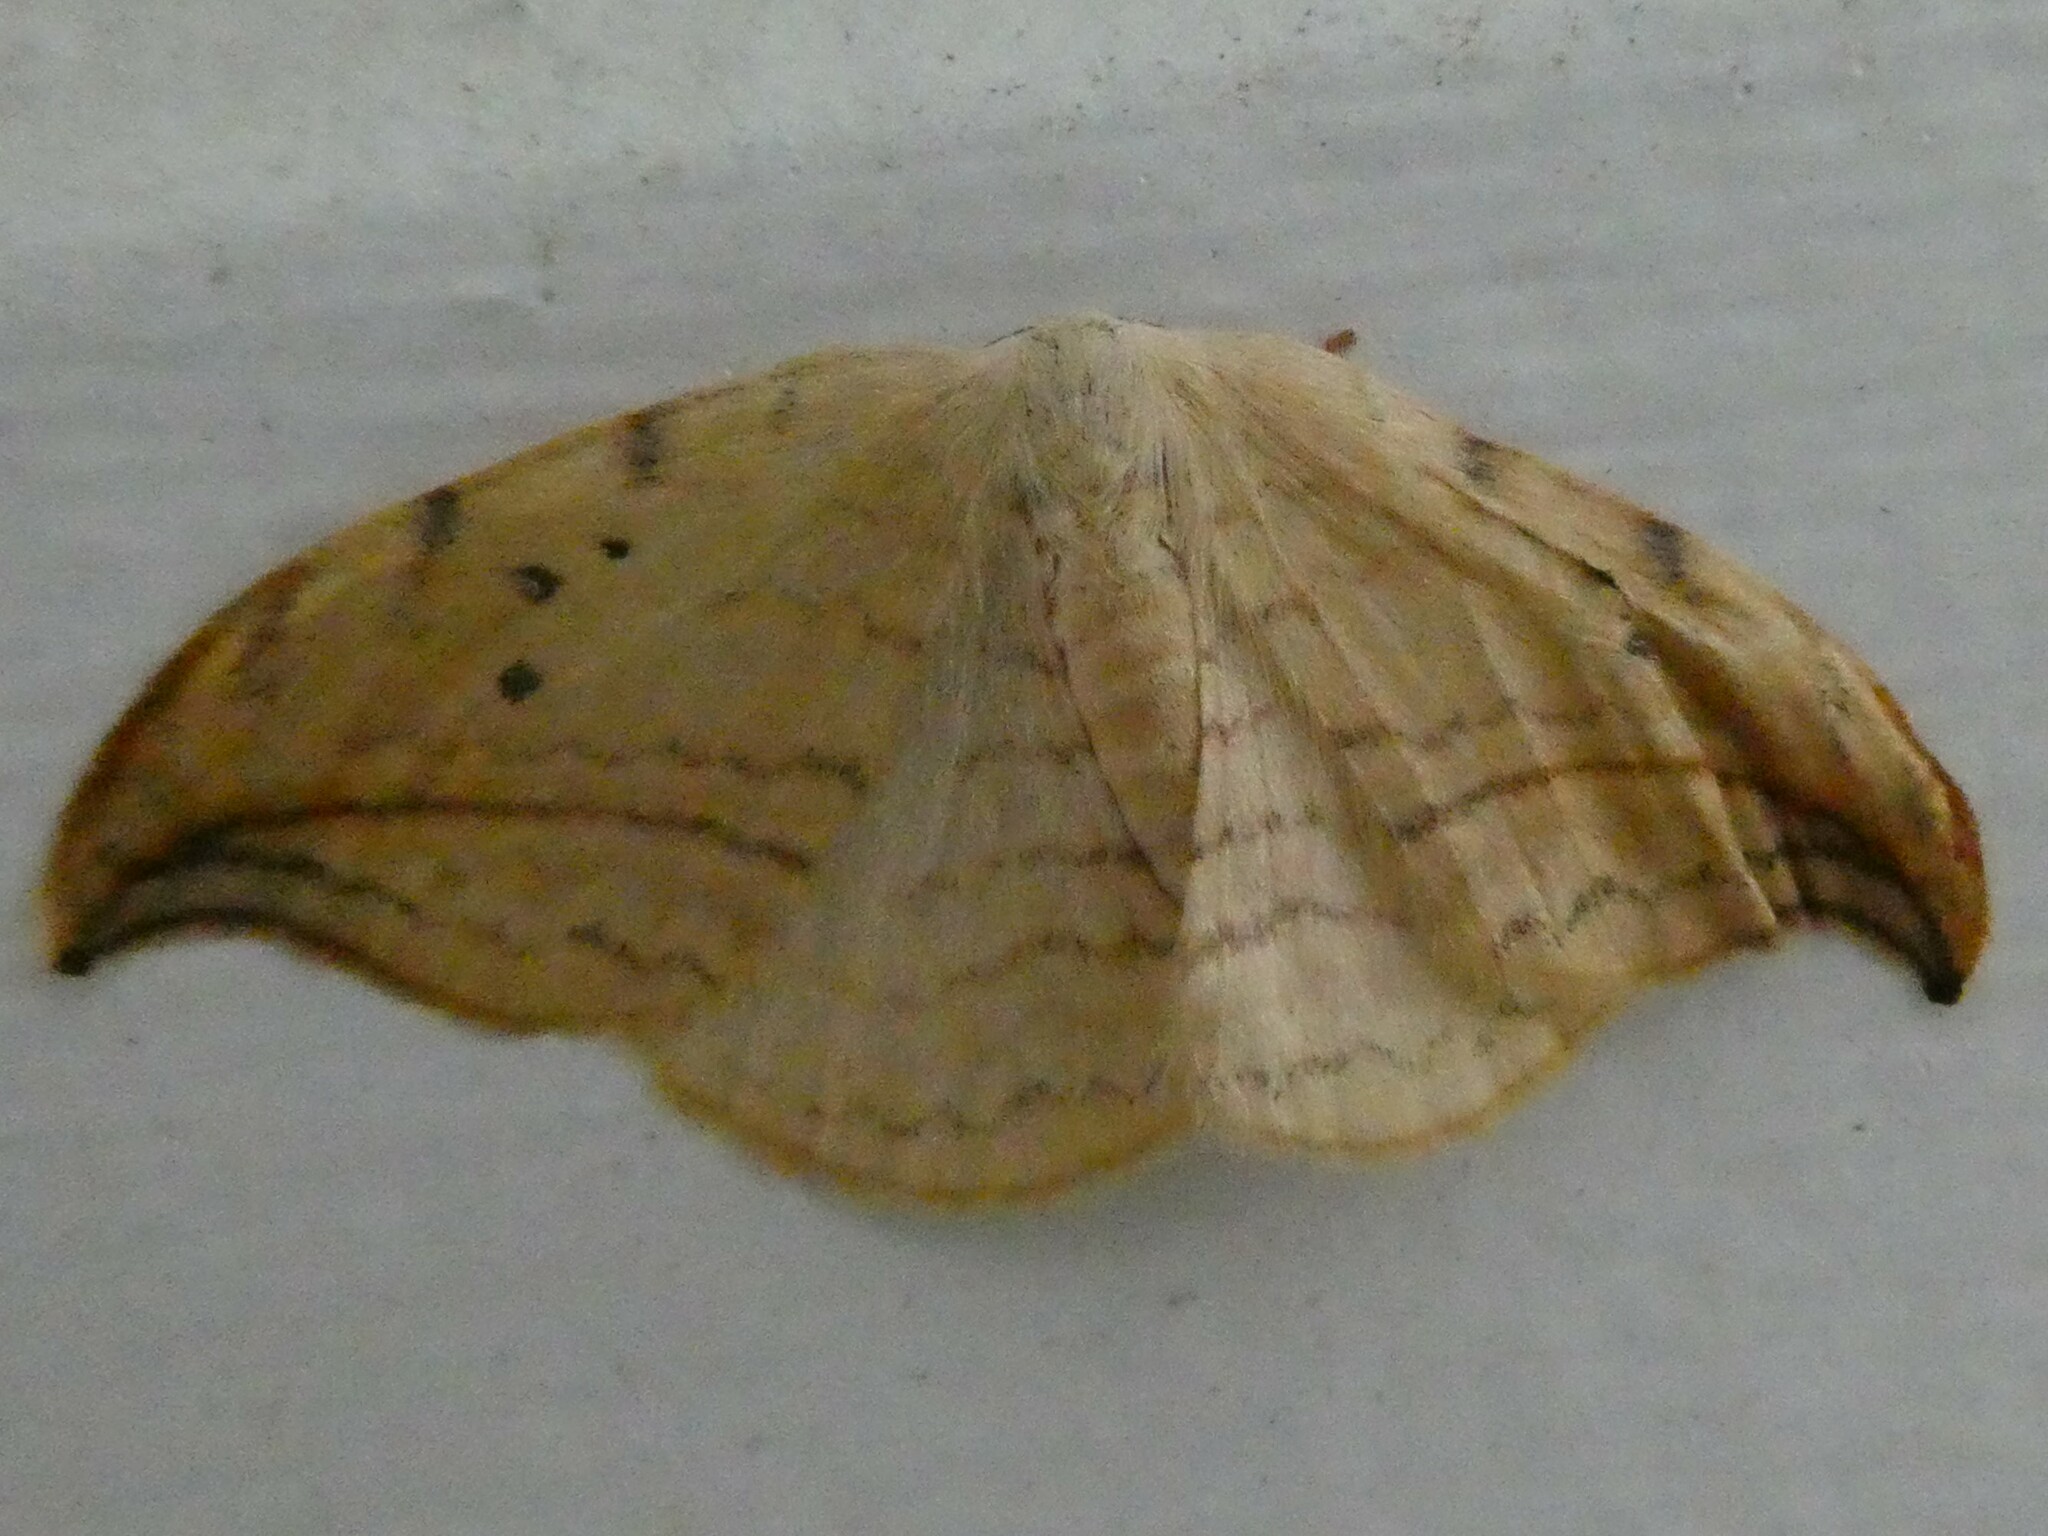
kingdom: Animalia
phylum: Arthropoda
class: Insecta
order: Lepidoptera
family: Drepanidae
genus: Drepana
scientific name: Drepana arcuata
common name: Arched hooktip moth
